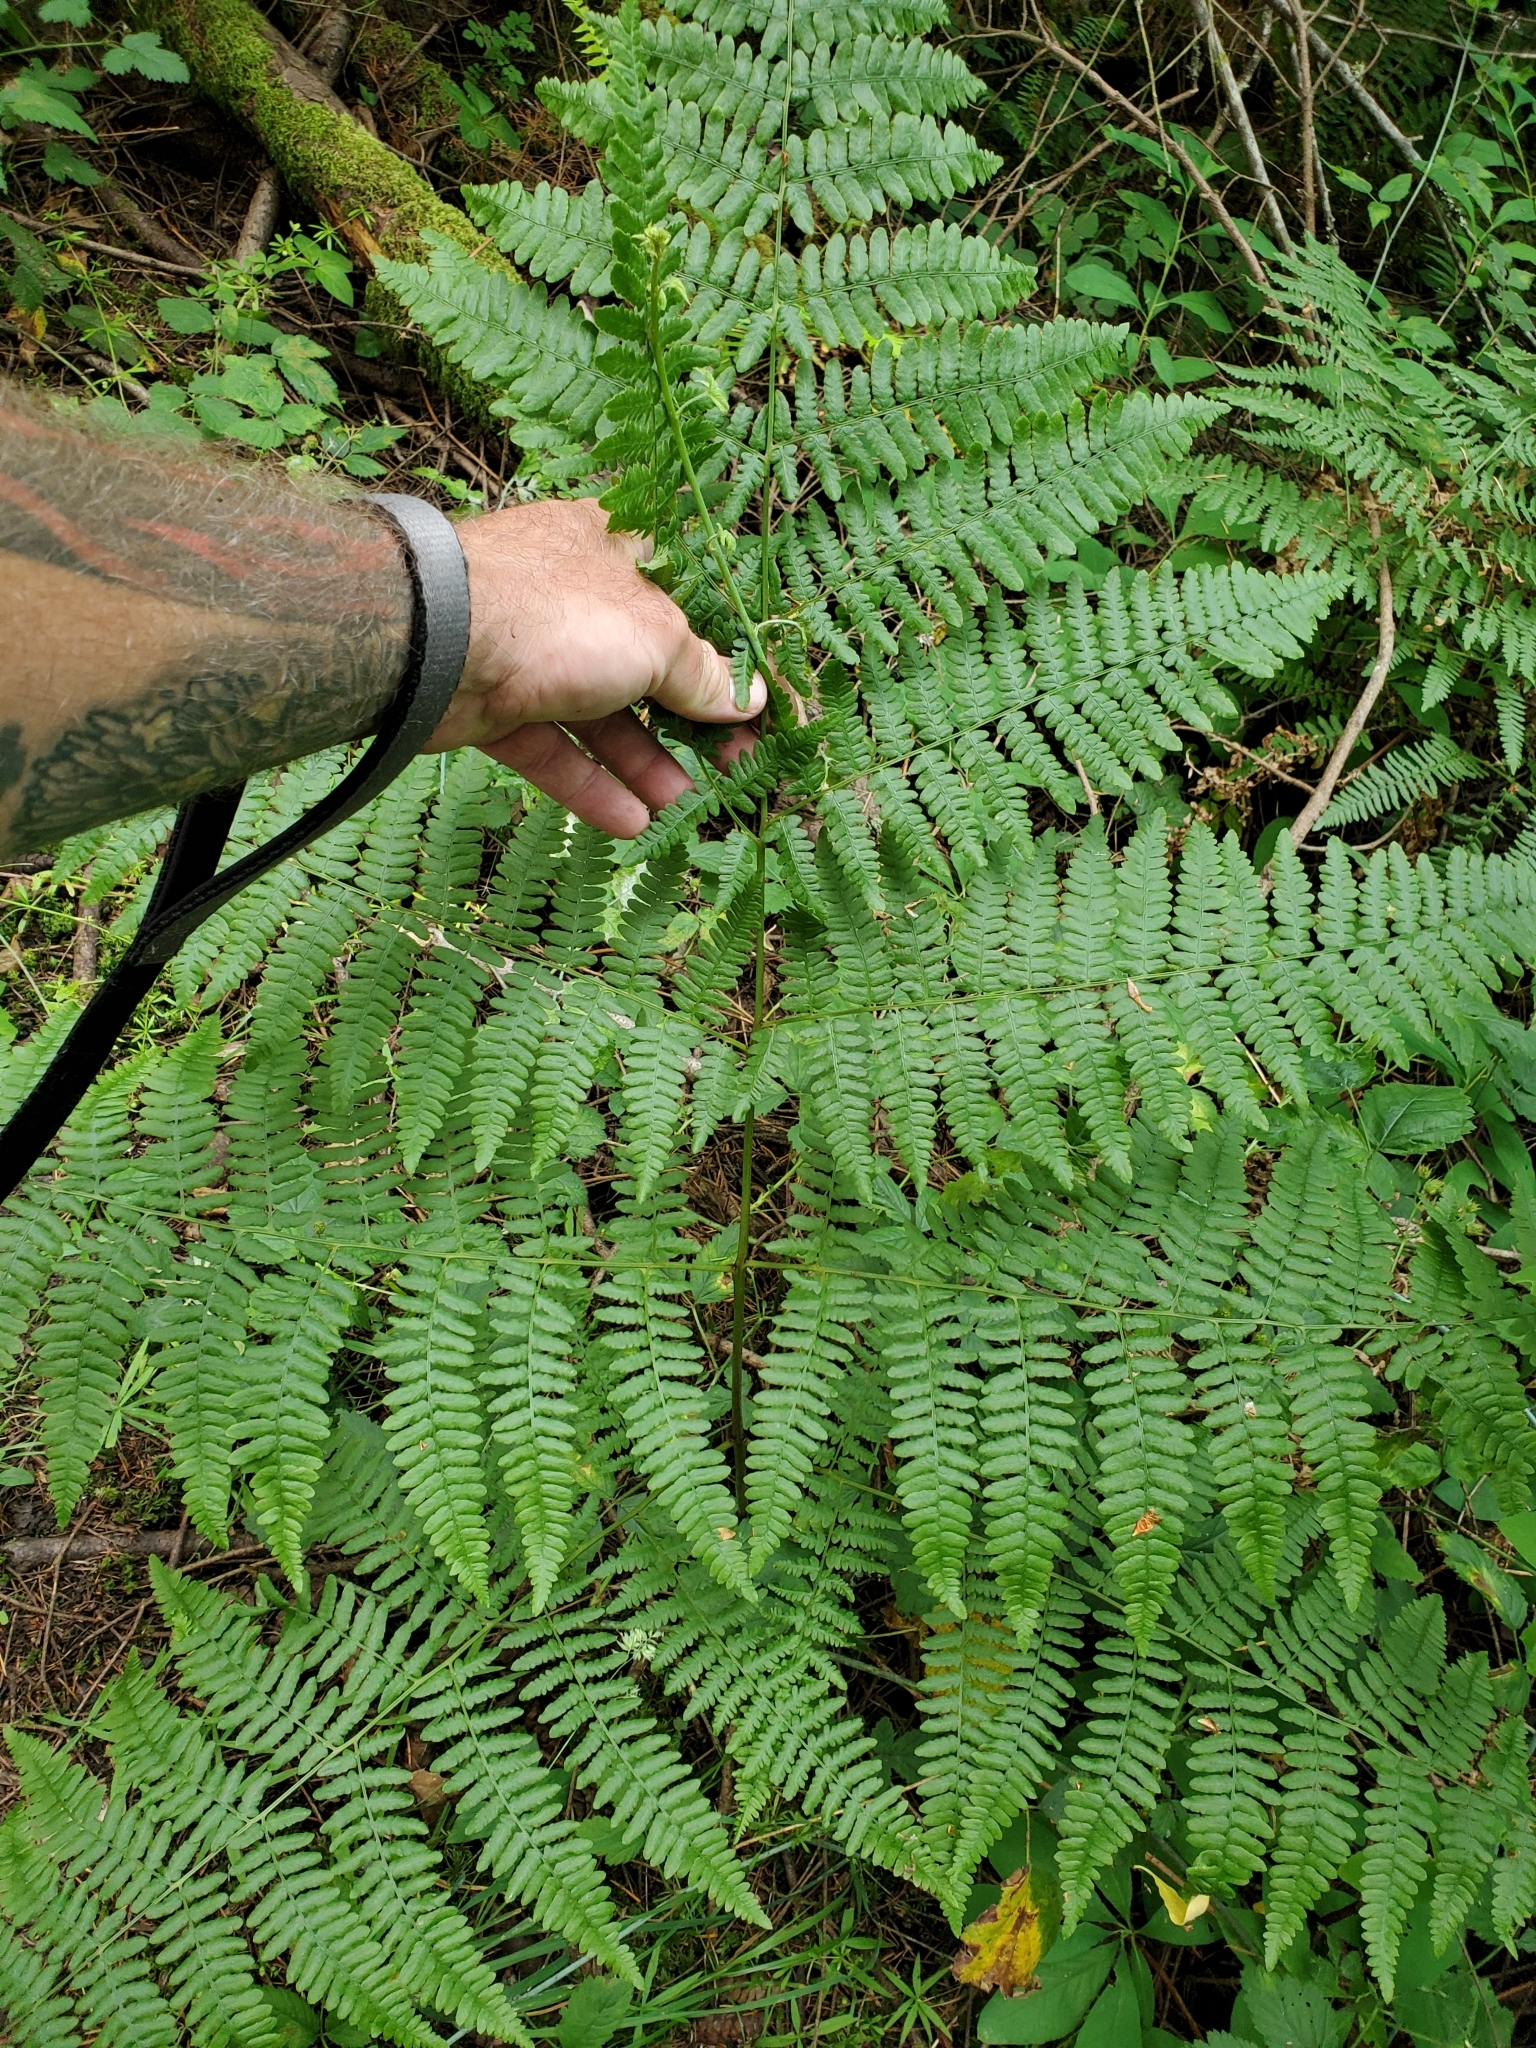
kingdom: Plantae
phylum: Tracheophyta
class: Polypodiopsida
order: Polypodiales
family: Dennstaedtiaceae
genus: Pteridium
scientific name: Pteridium aquilinum
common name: Bracken
